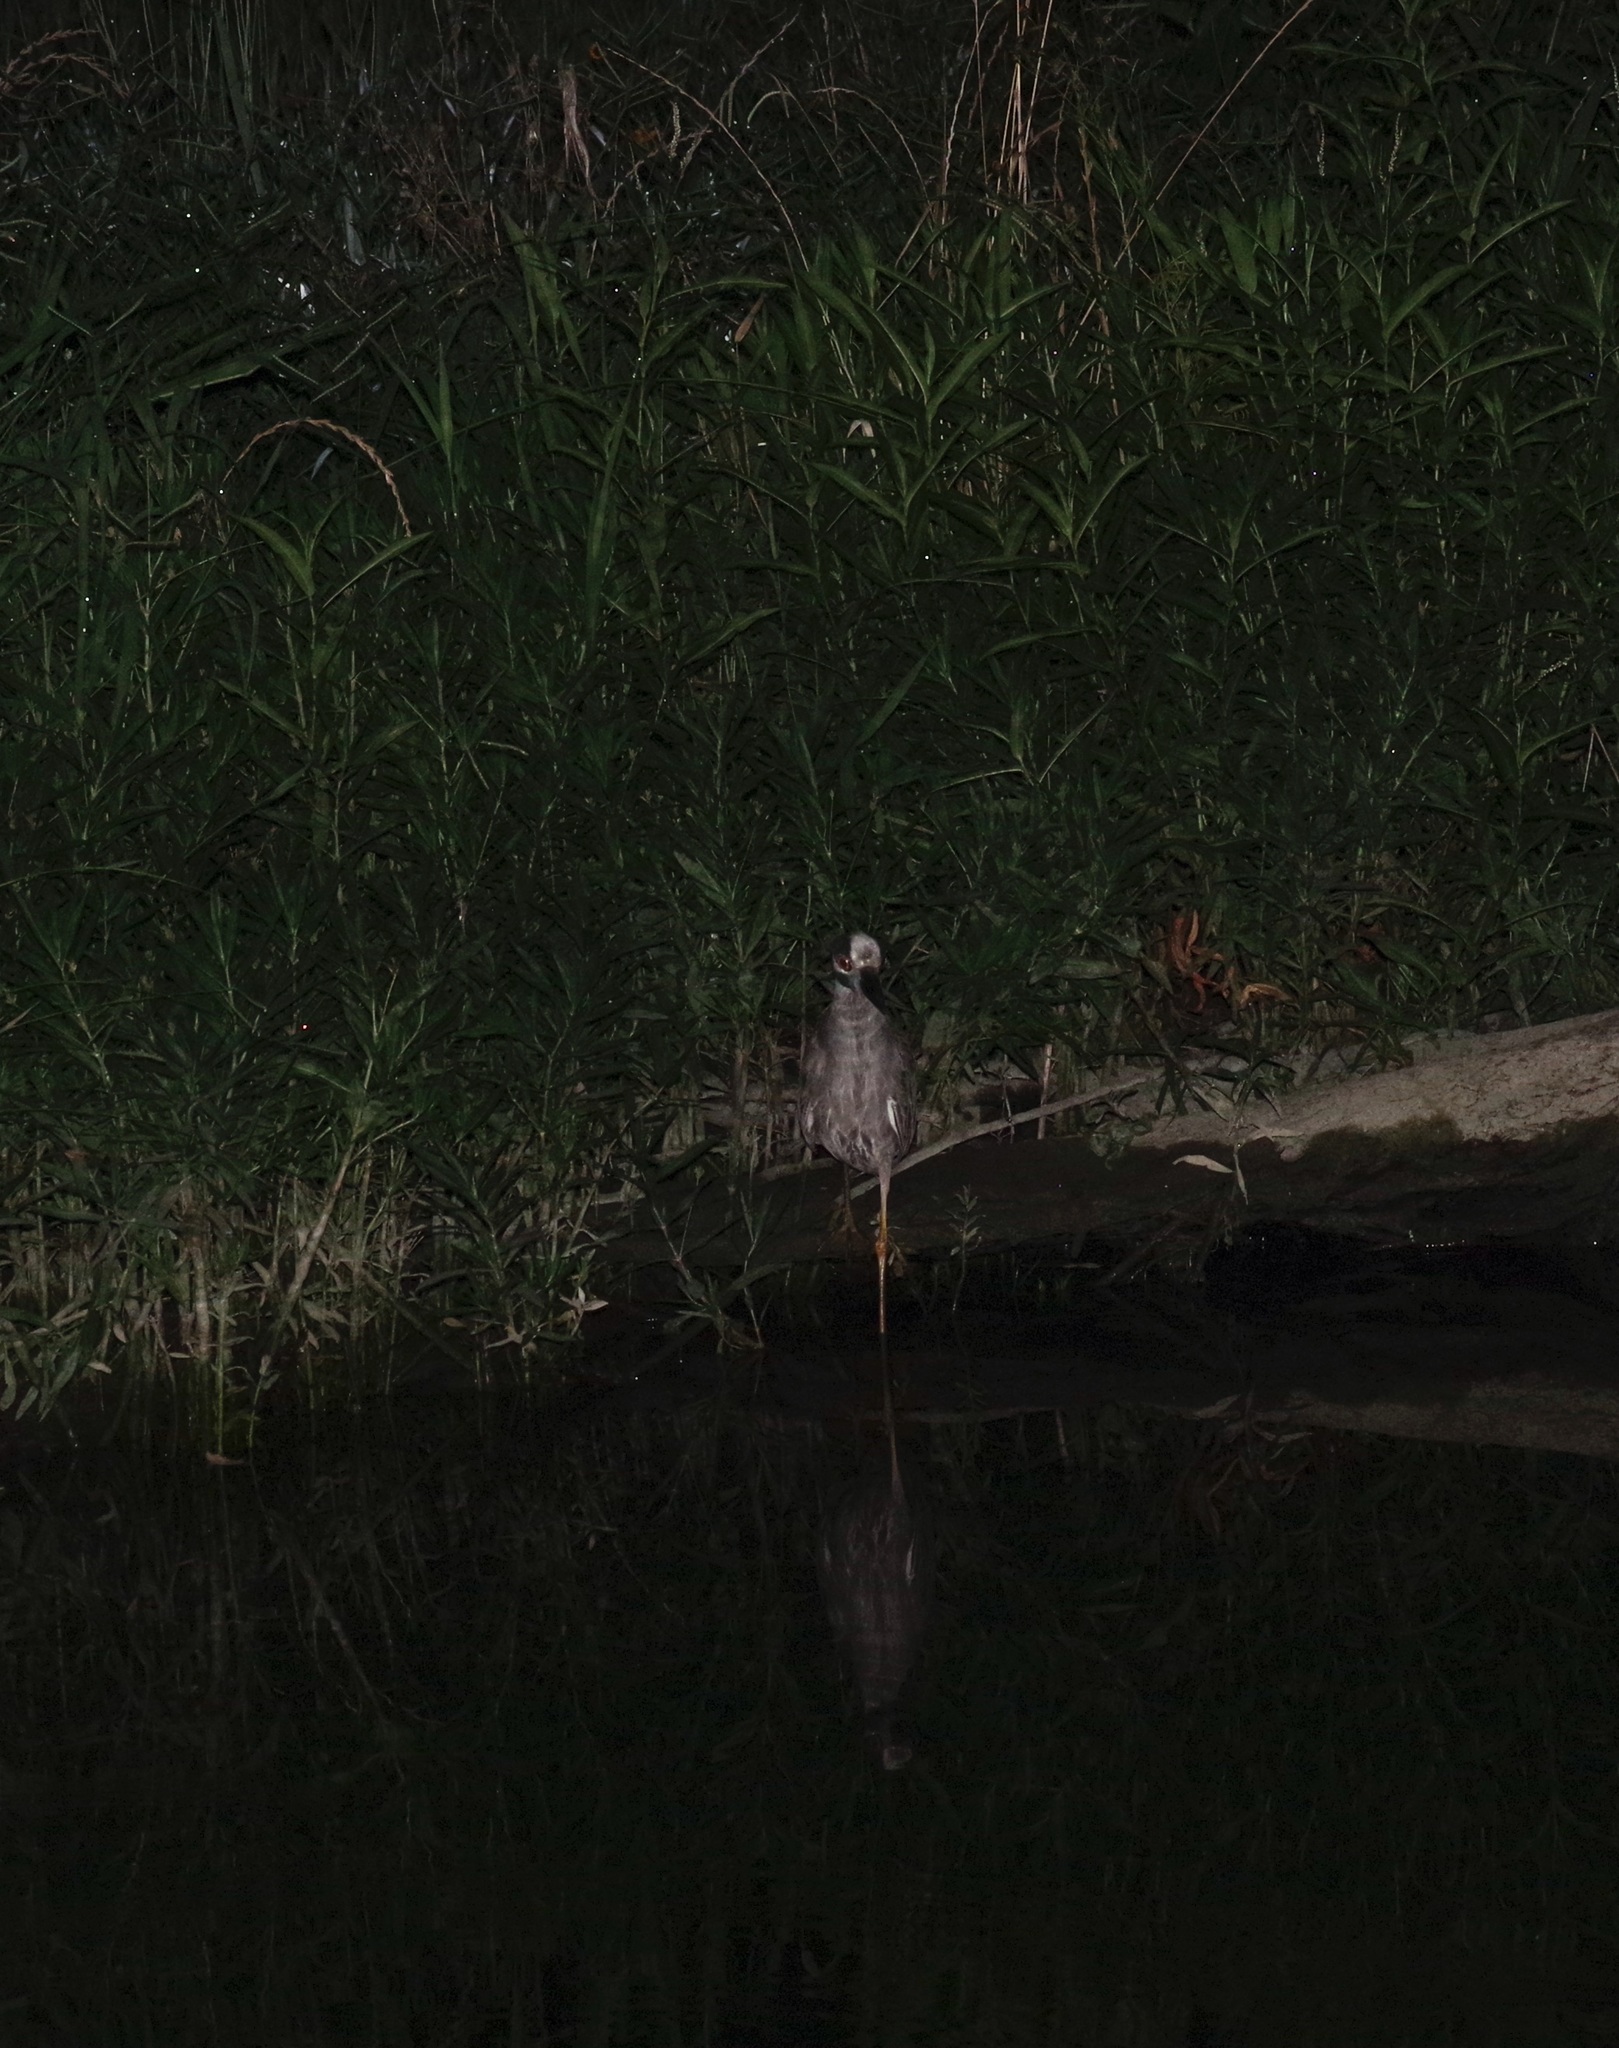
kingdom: Animalia
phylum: Chordata
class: Aves
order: Pelecaniformes
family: Ardeidae
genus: Nyctanassa
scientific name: Nyctanassa violacea
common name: Yellow-crowned night heron
